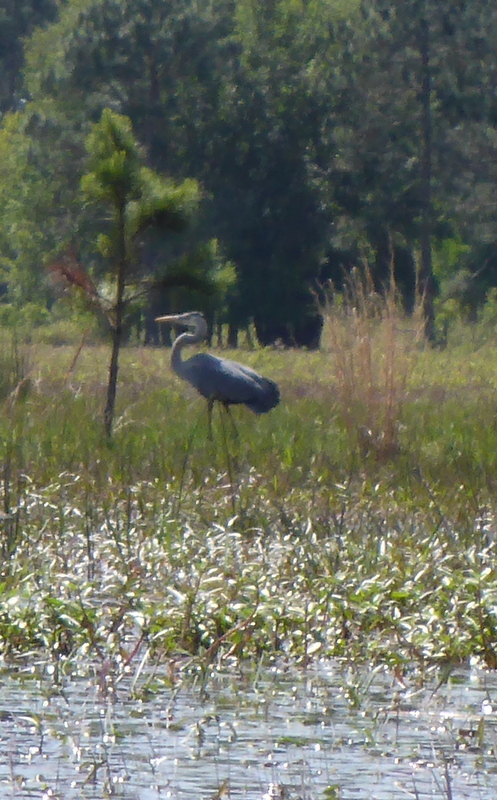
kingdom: Animalia
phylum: Chordata
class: Aves
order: Pelecaniformes
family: Ardeidae
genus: Ardea
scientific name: Ardea herodias
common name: Great blue heron
